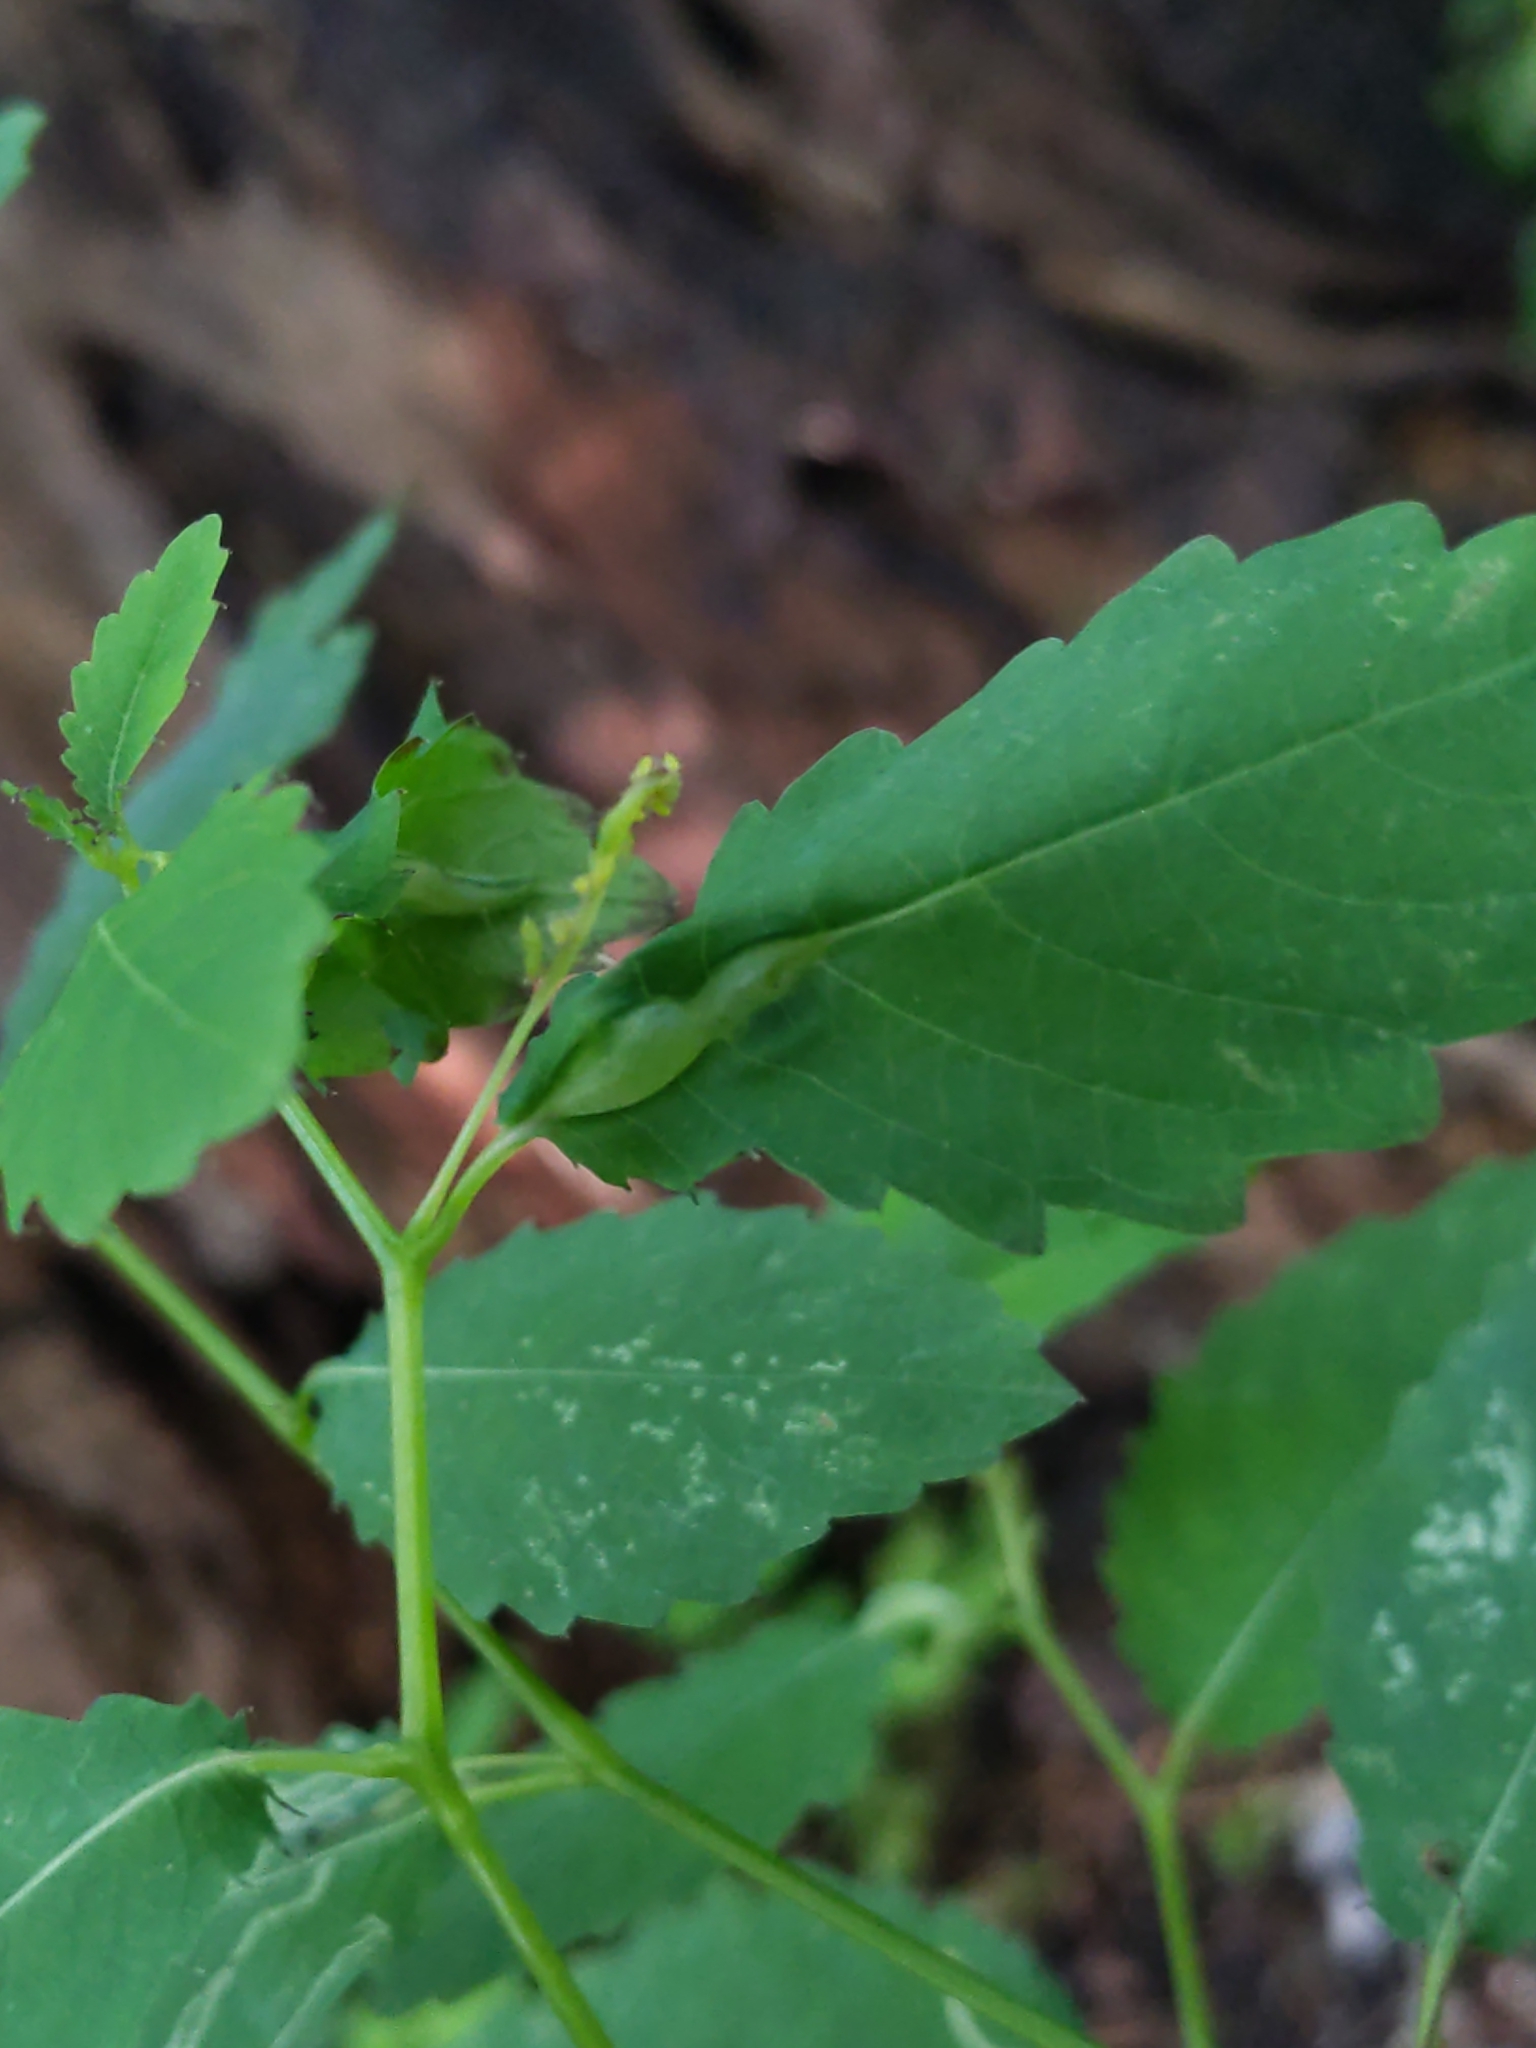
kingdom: Animalia
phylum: Arthropoda
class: Insecta
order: Diptera
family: Cecidomyiidae
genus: Neolasioptera
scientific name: Neolasioptera impatientifolia
